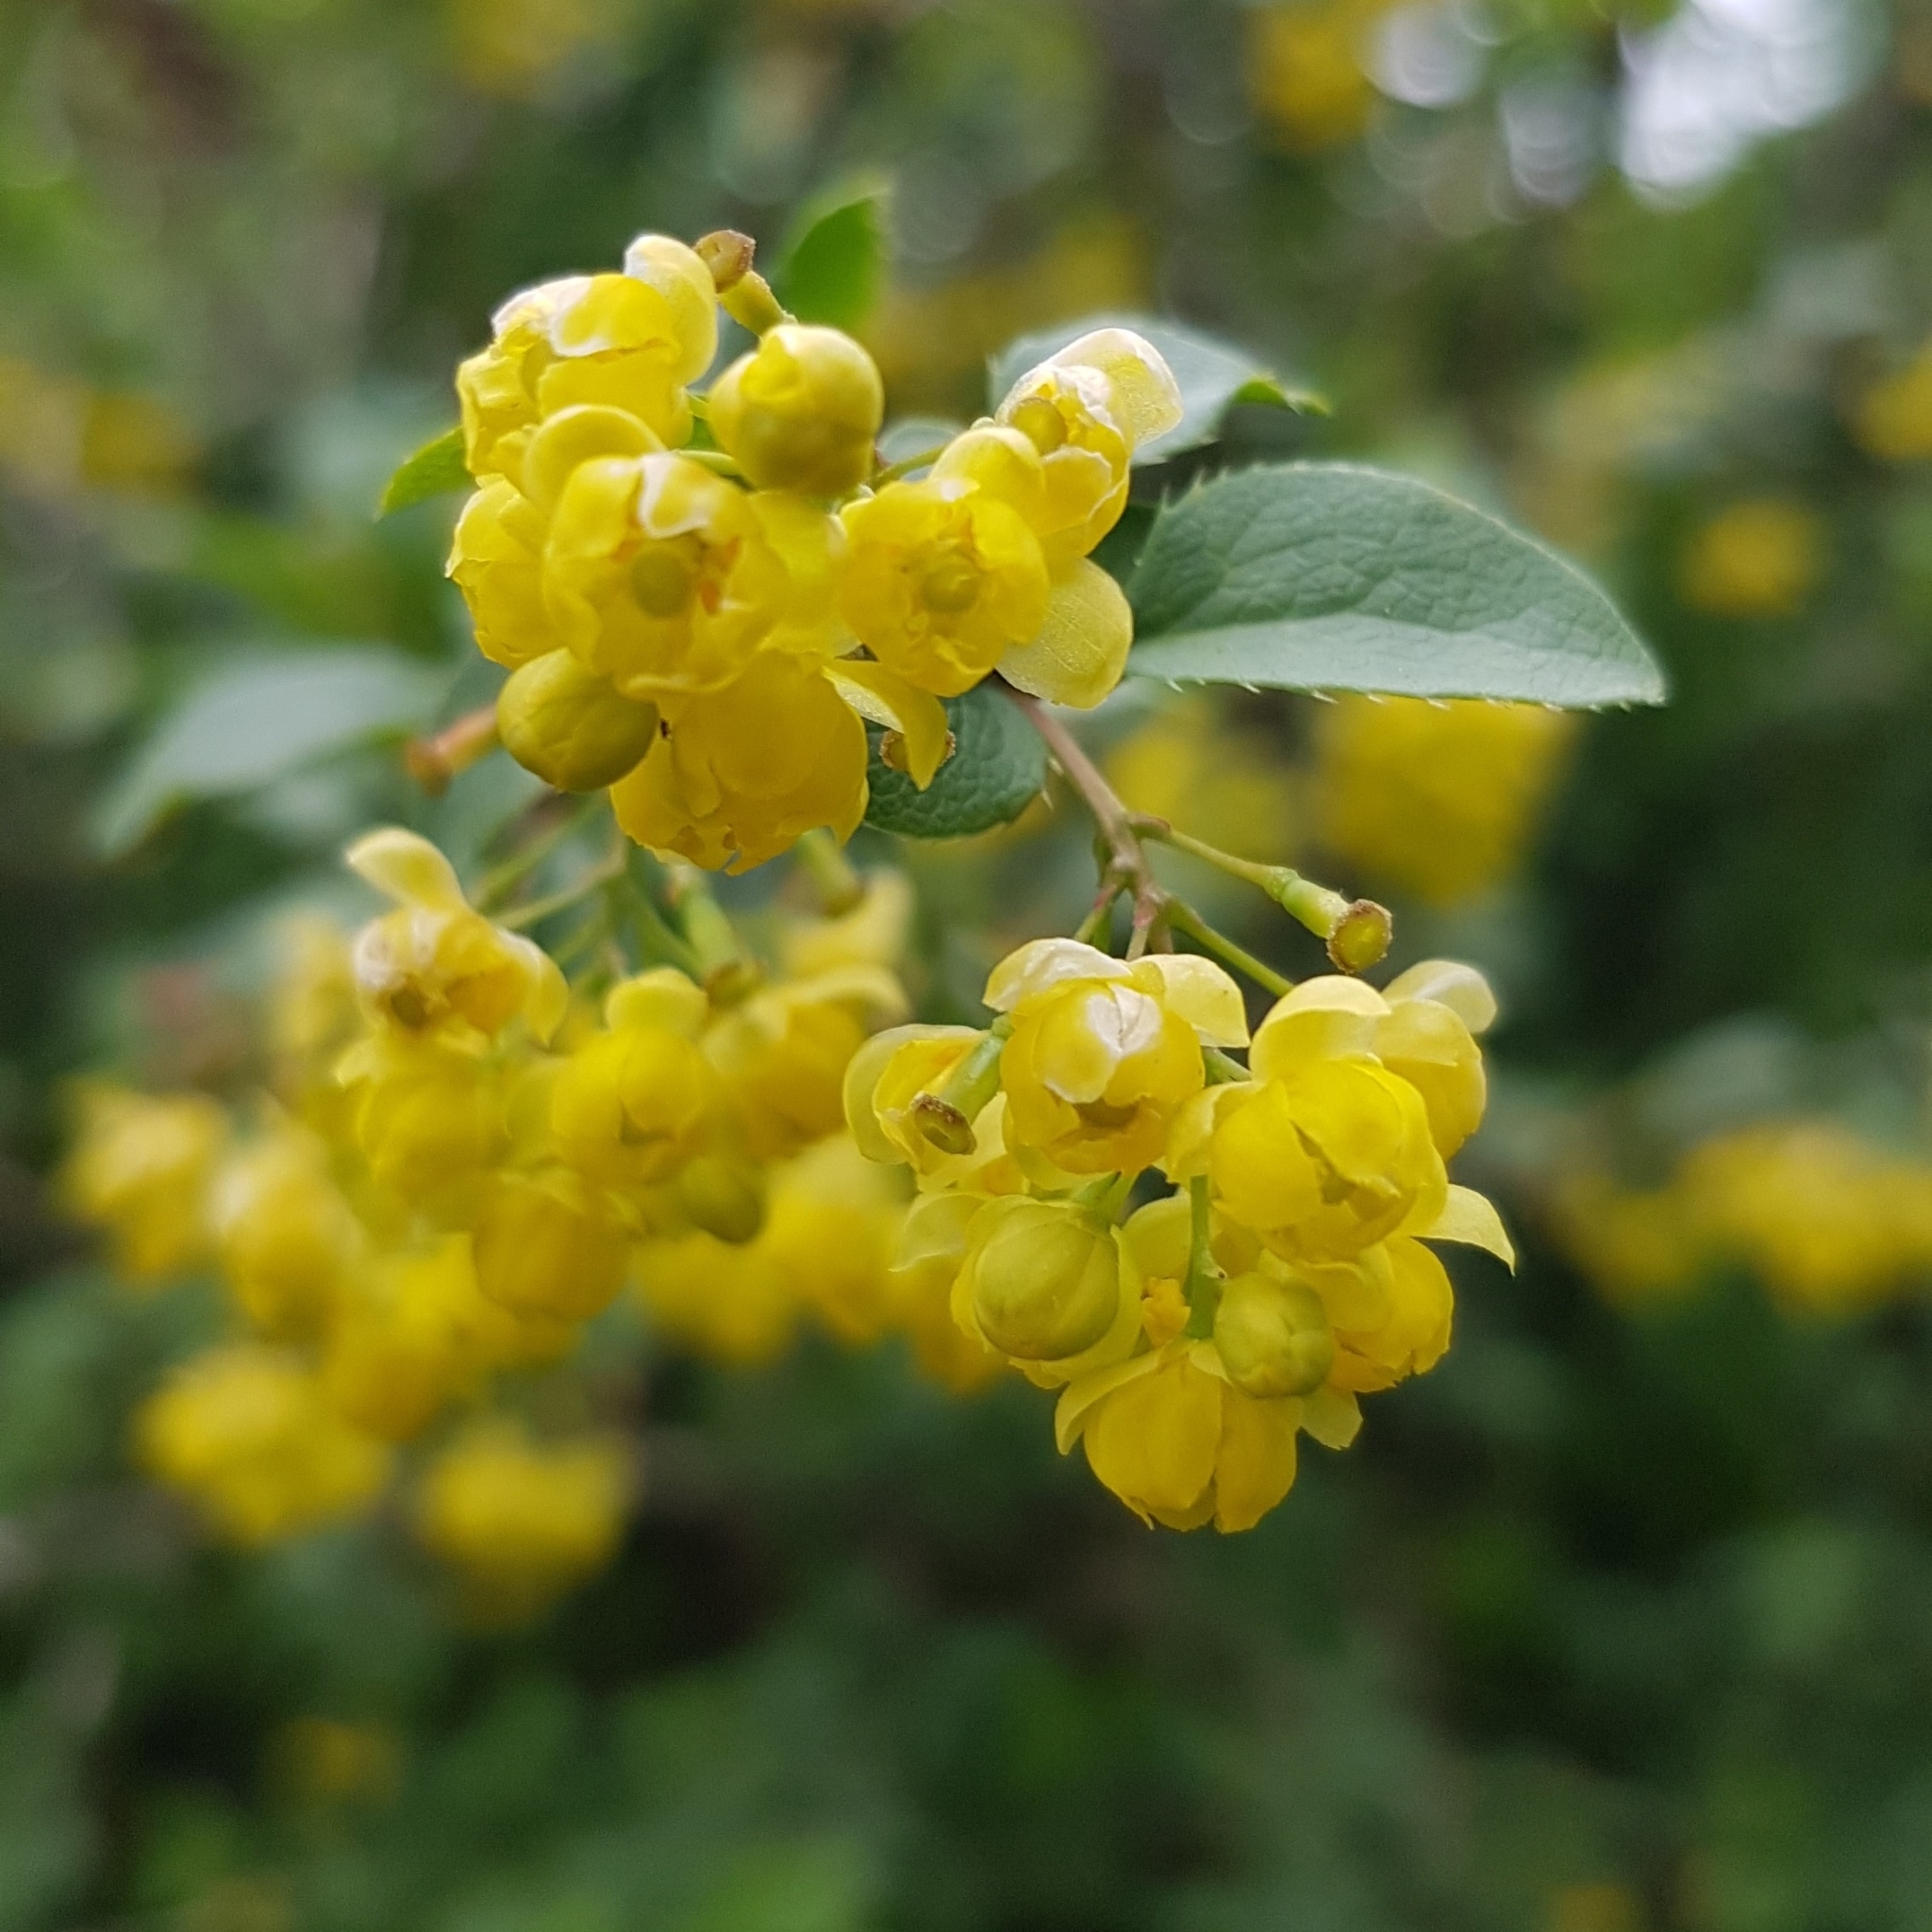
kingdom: Plantae
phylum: Tracheophyta
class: Magnoliopsida
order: Ranunculales
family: Berberidaceae
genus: Berberis
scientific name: Berberis vulgaris
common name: Barberry
